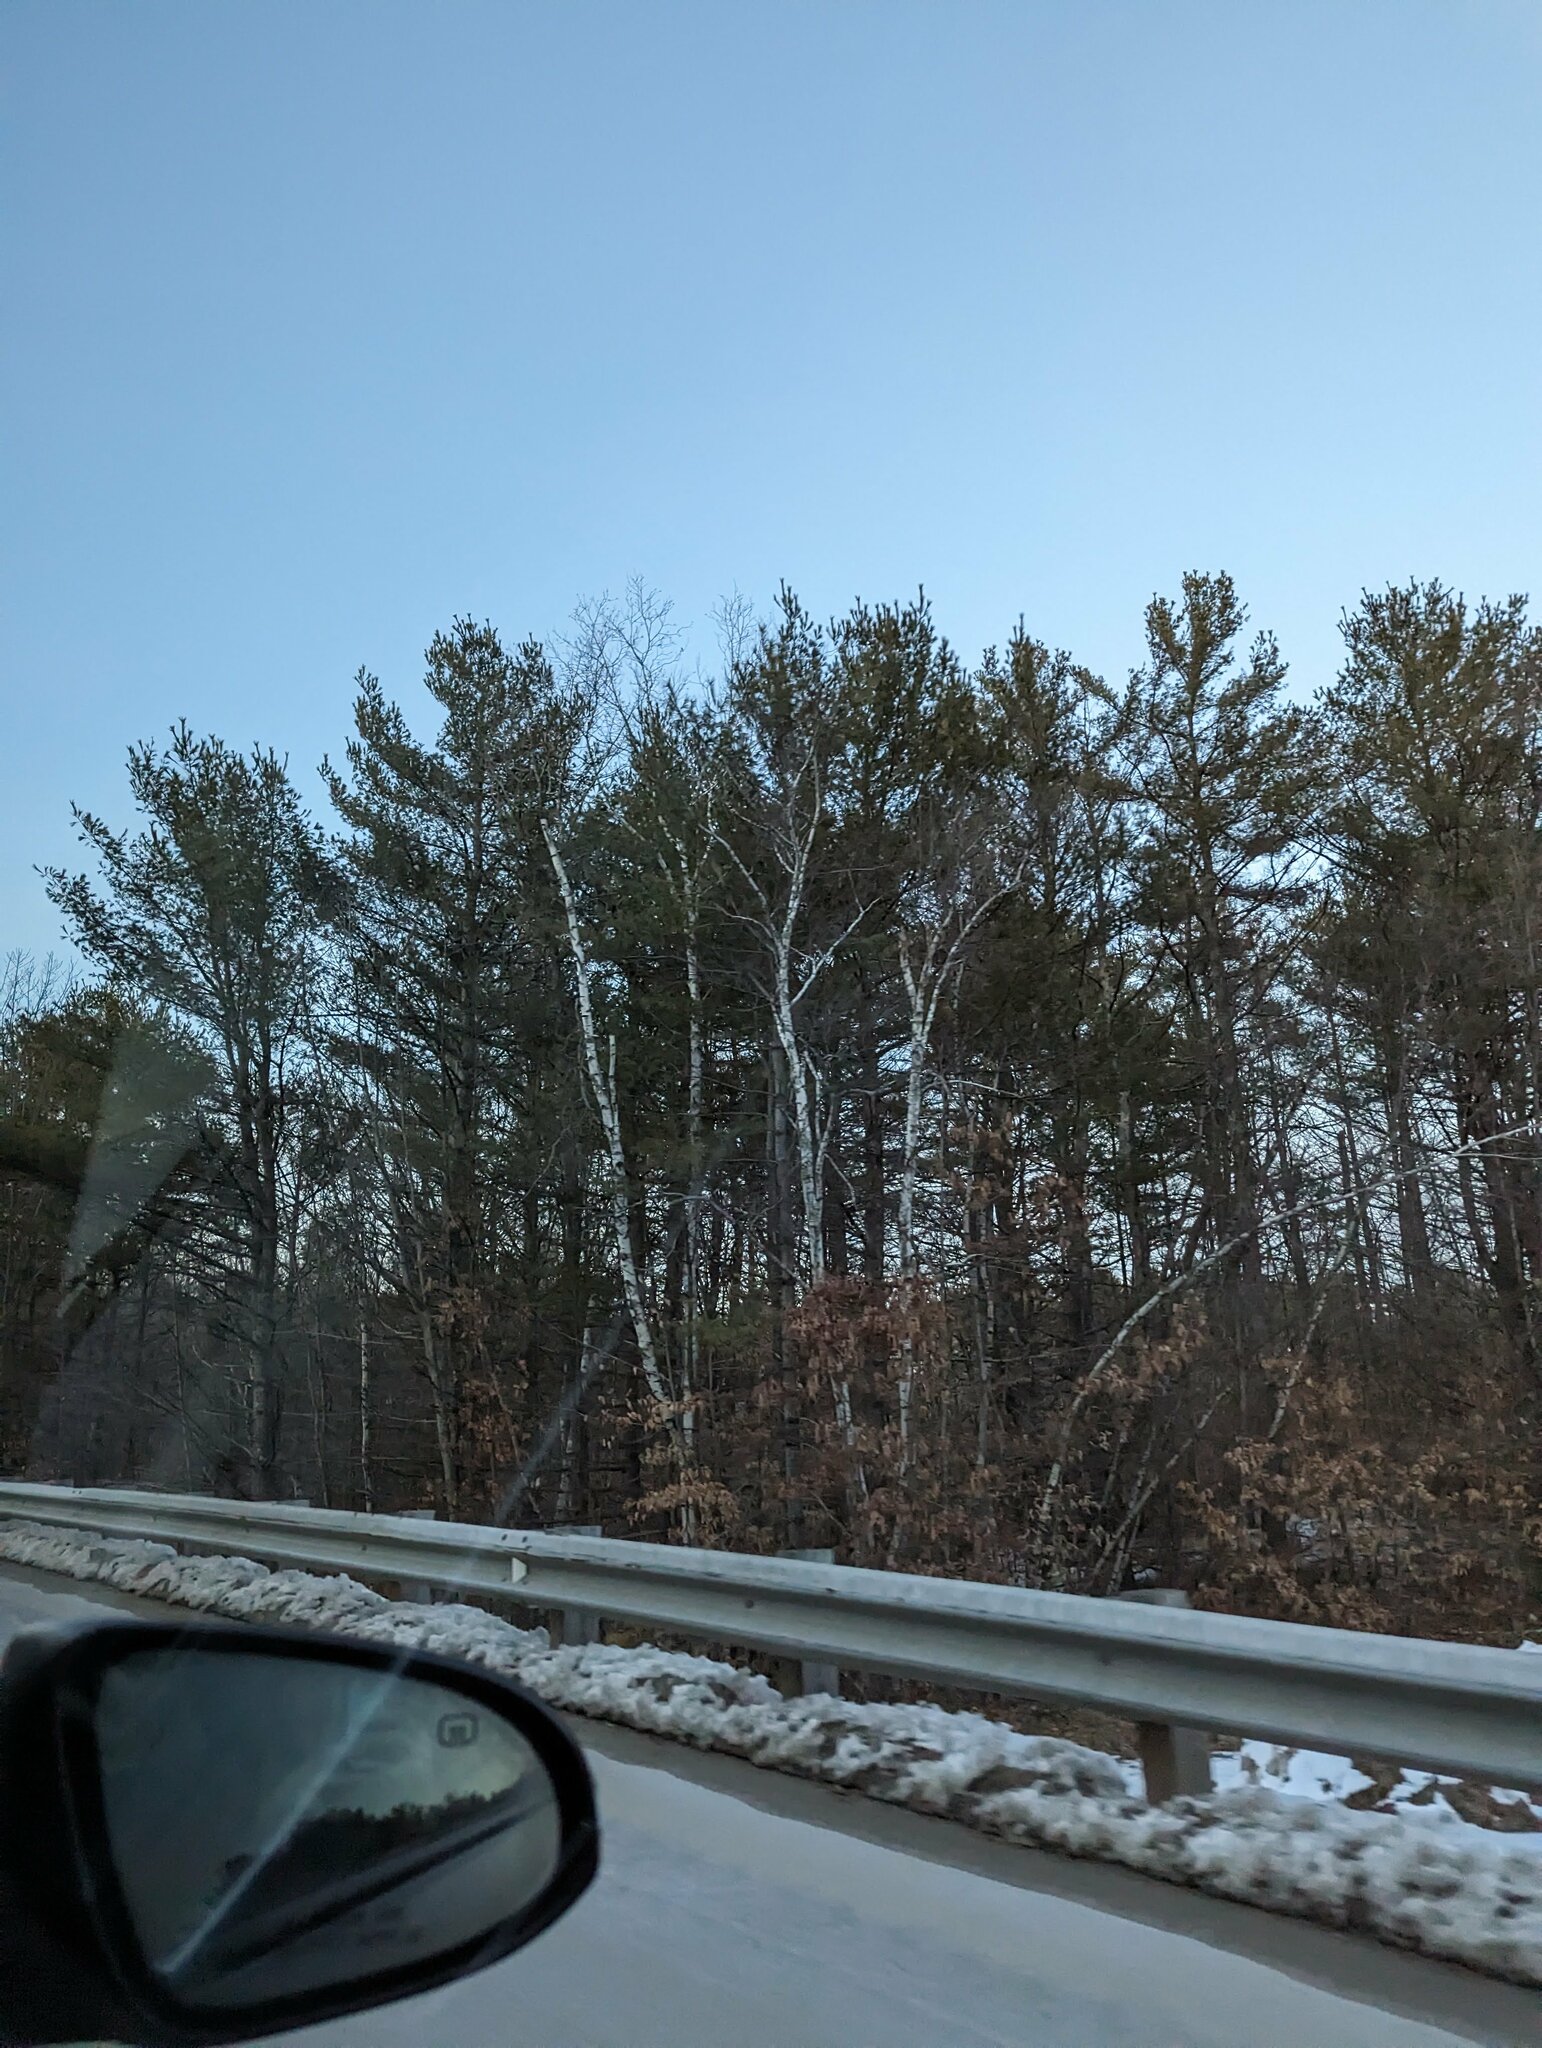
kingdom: Plantae
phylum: Tracheophyta
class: Pinopsida
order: Pinales
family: Pinaceae
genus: Pinus
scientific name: Pinus strobus
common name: Weymouth pine
